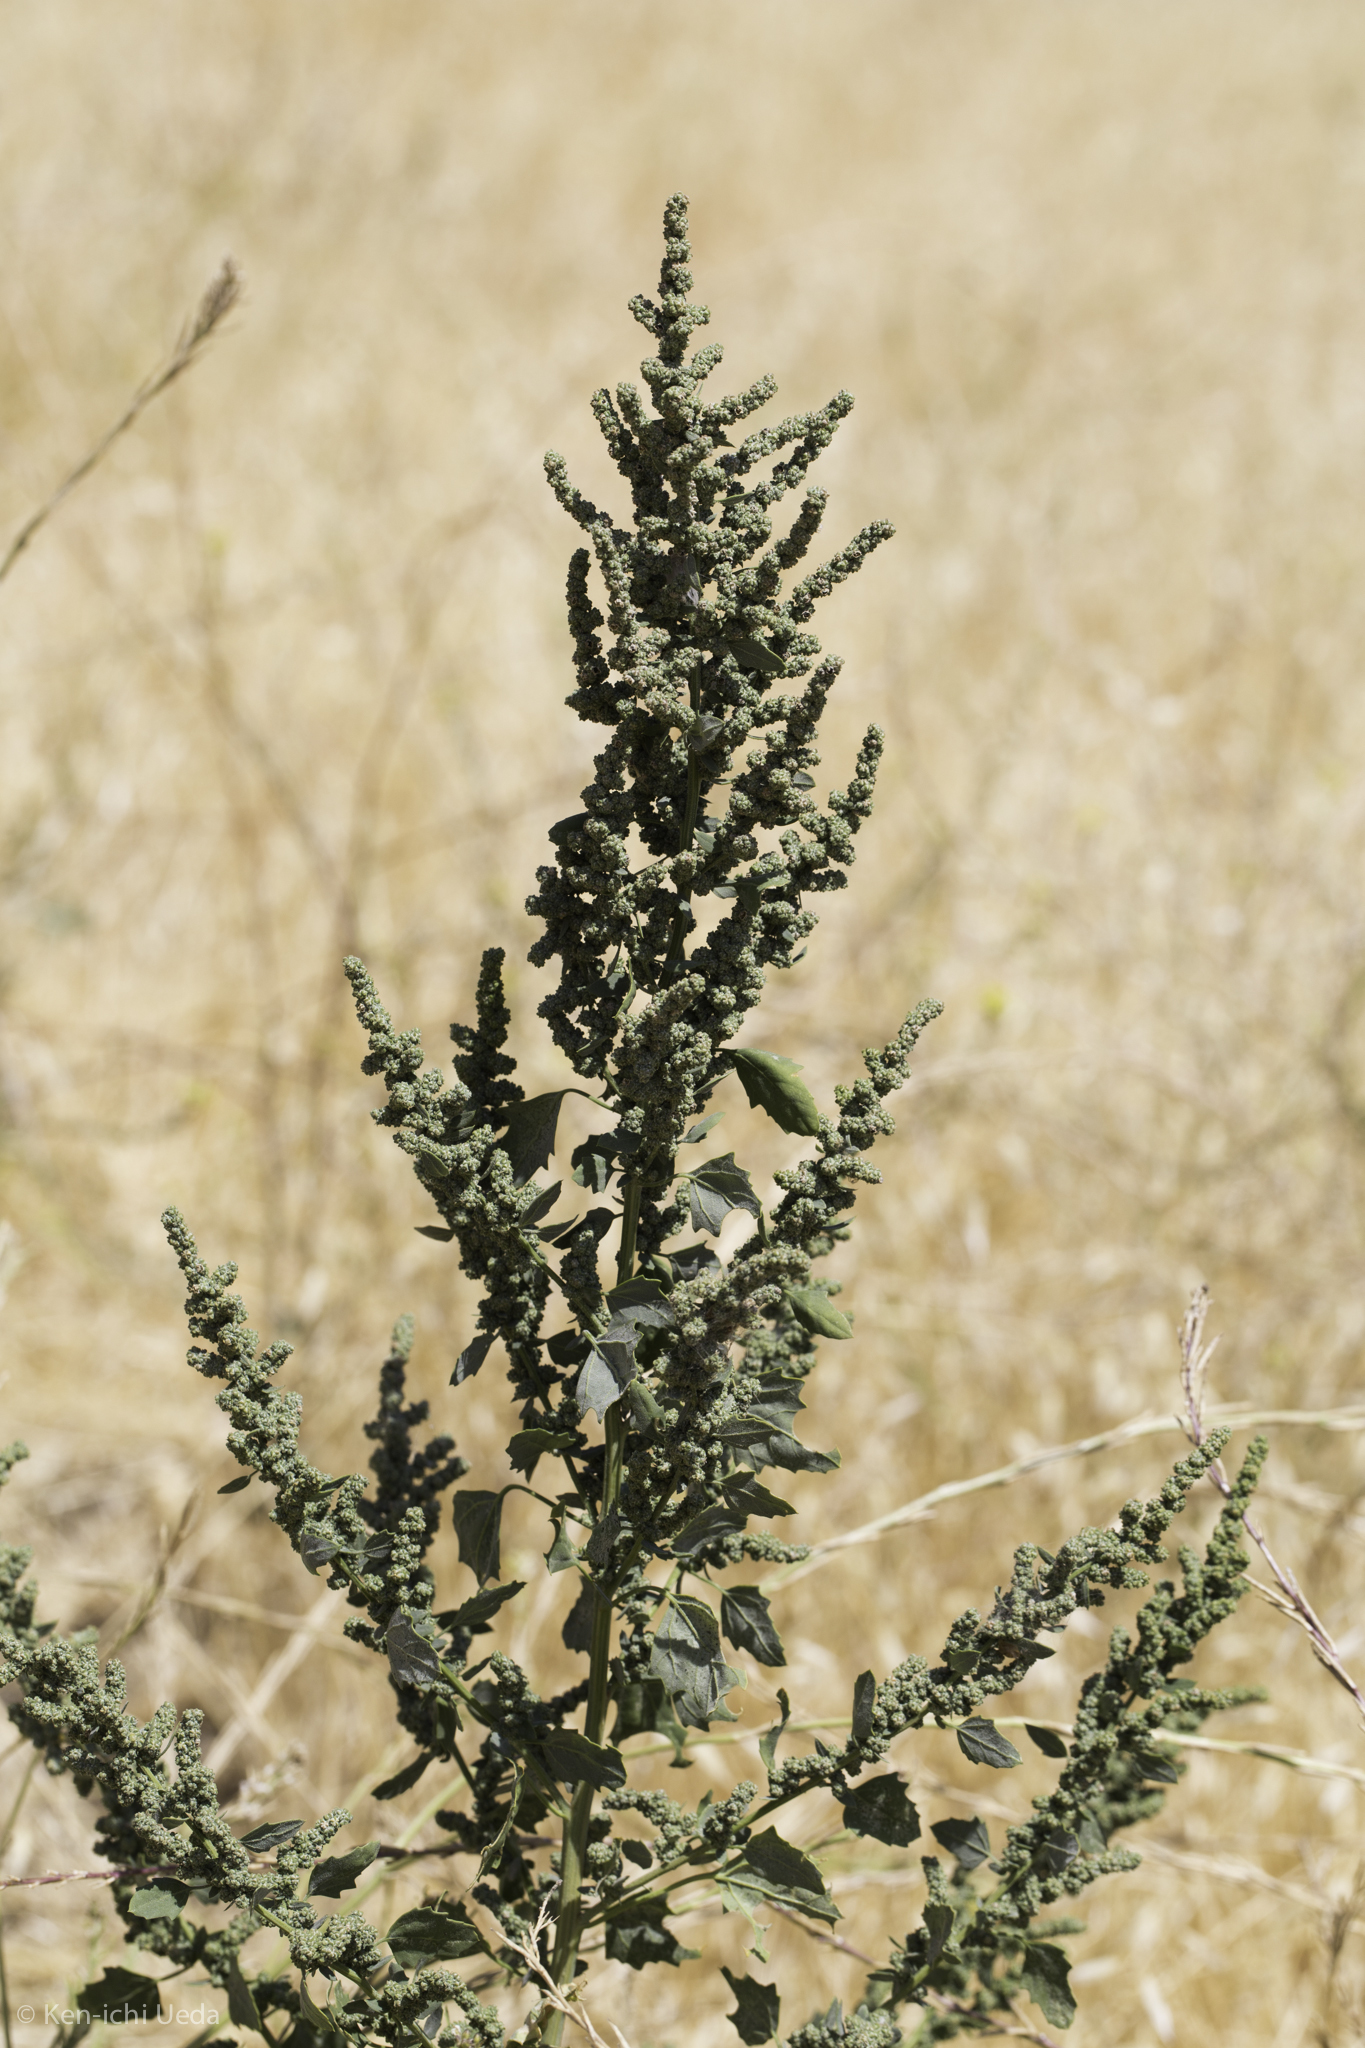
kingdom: Plantae
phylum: Tracheophyta
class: Magnoliopsida
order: Caryophyllales
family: Amaranthaceae
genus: Extriplex
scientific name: Extriplex joaquinana
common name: San joaquin saltbush
